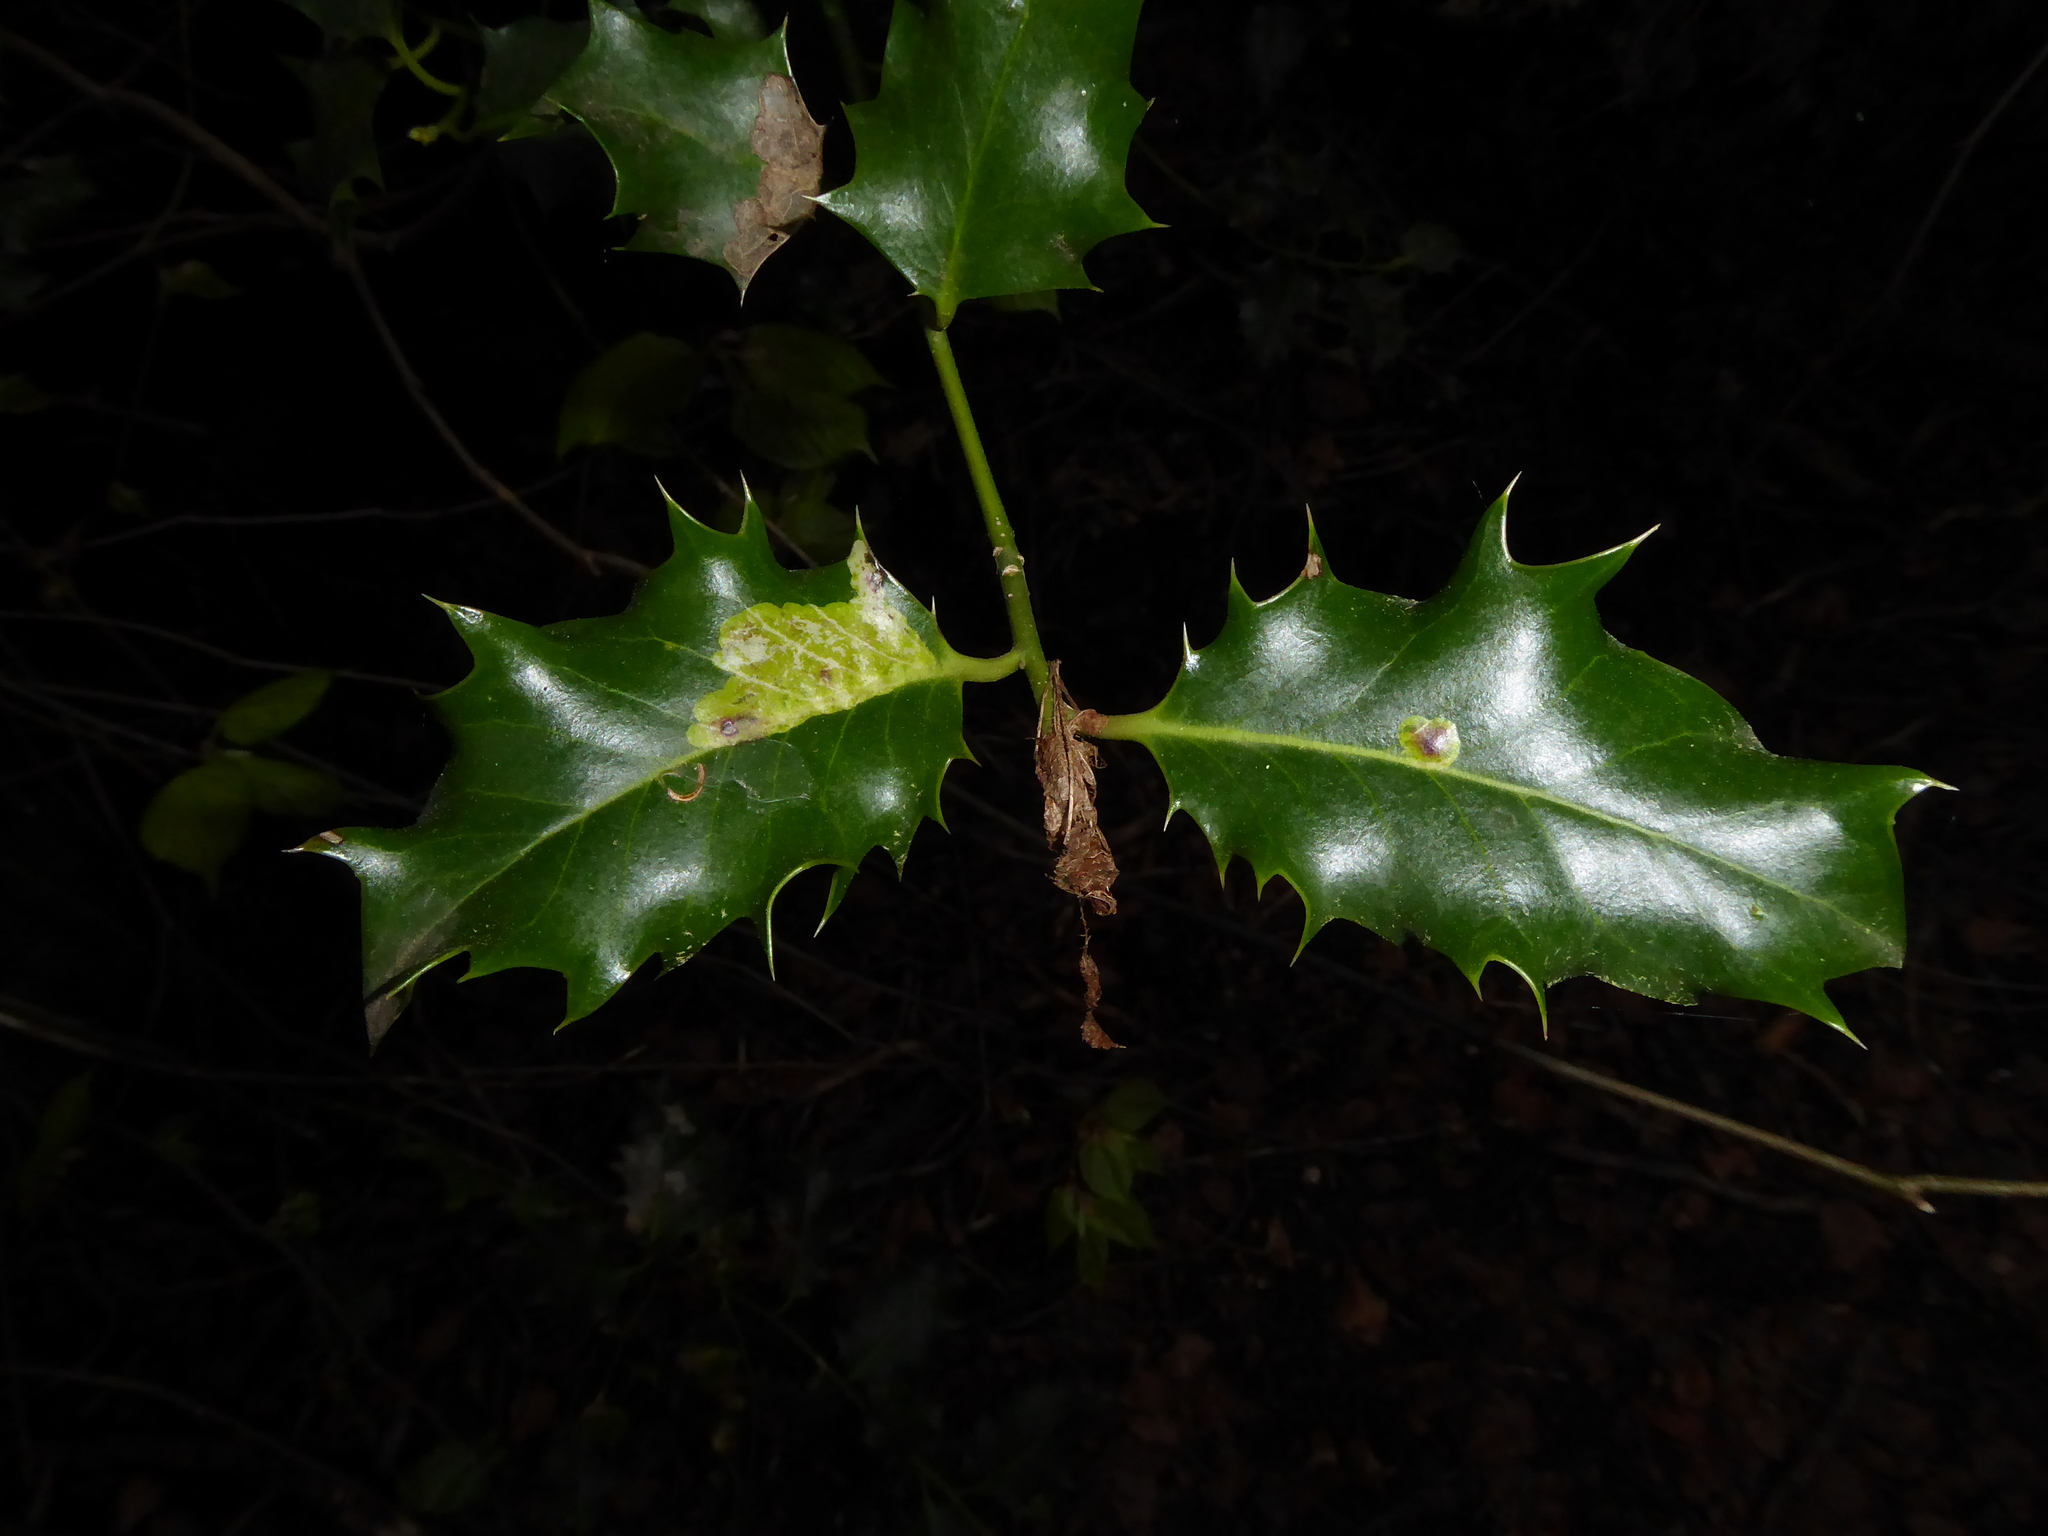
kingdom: Animalia
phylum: Arthropoda
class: Insecta
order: Diptera
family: Agromyzidae
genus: Phytomyza
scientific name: Phytomyza ilicis
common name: Holly leafminer
